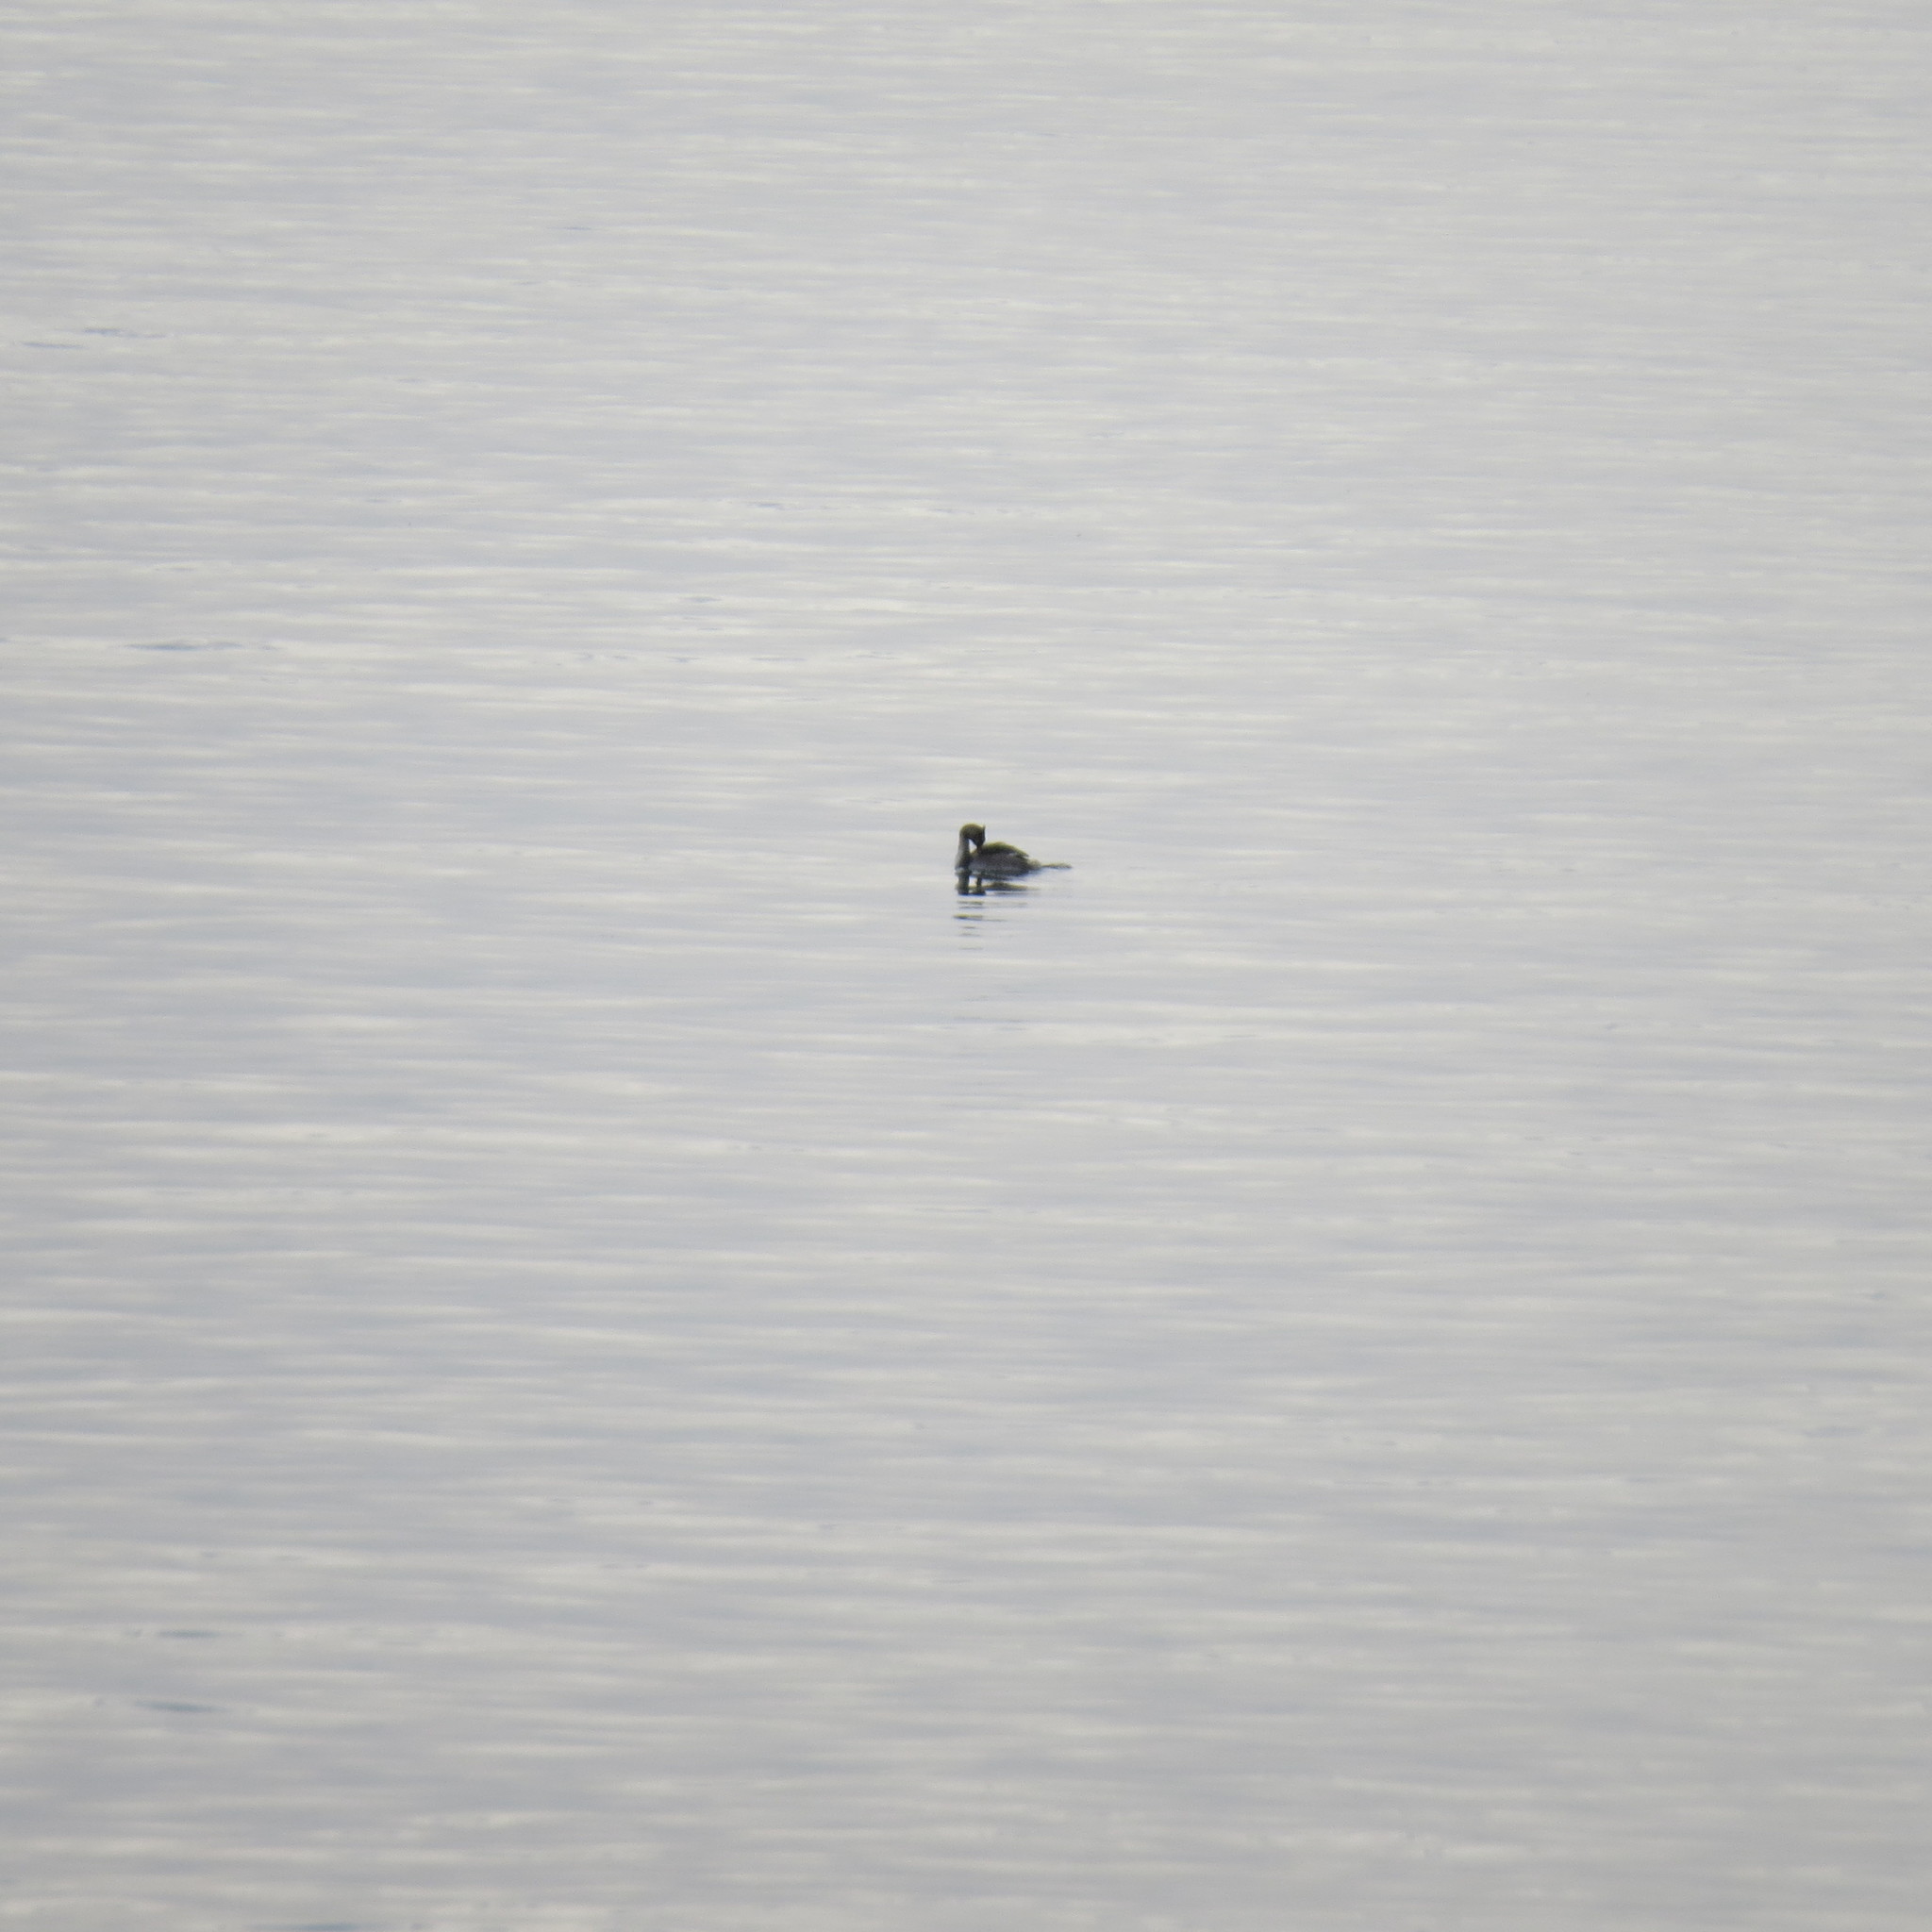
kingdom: Animalia
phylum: Chordata
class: Aves
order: Podicipediformes
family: Podicipedidae
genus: Podiceps
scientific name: Podiceps cristatus
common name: Great crested grebe
